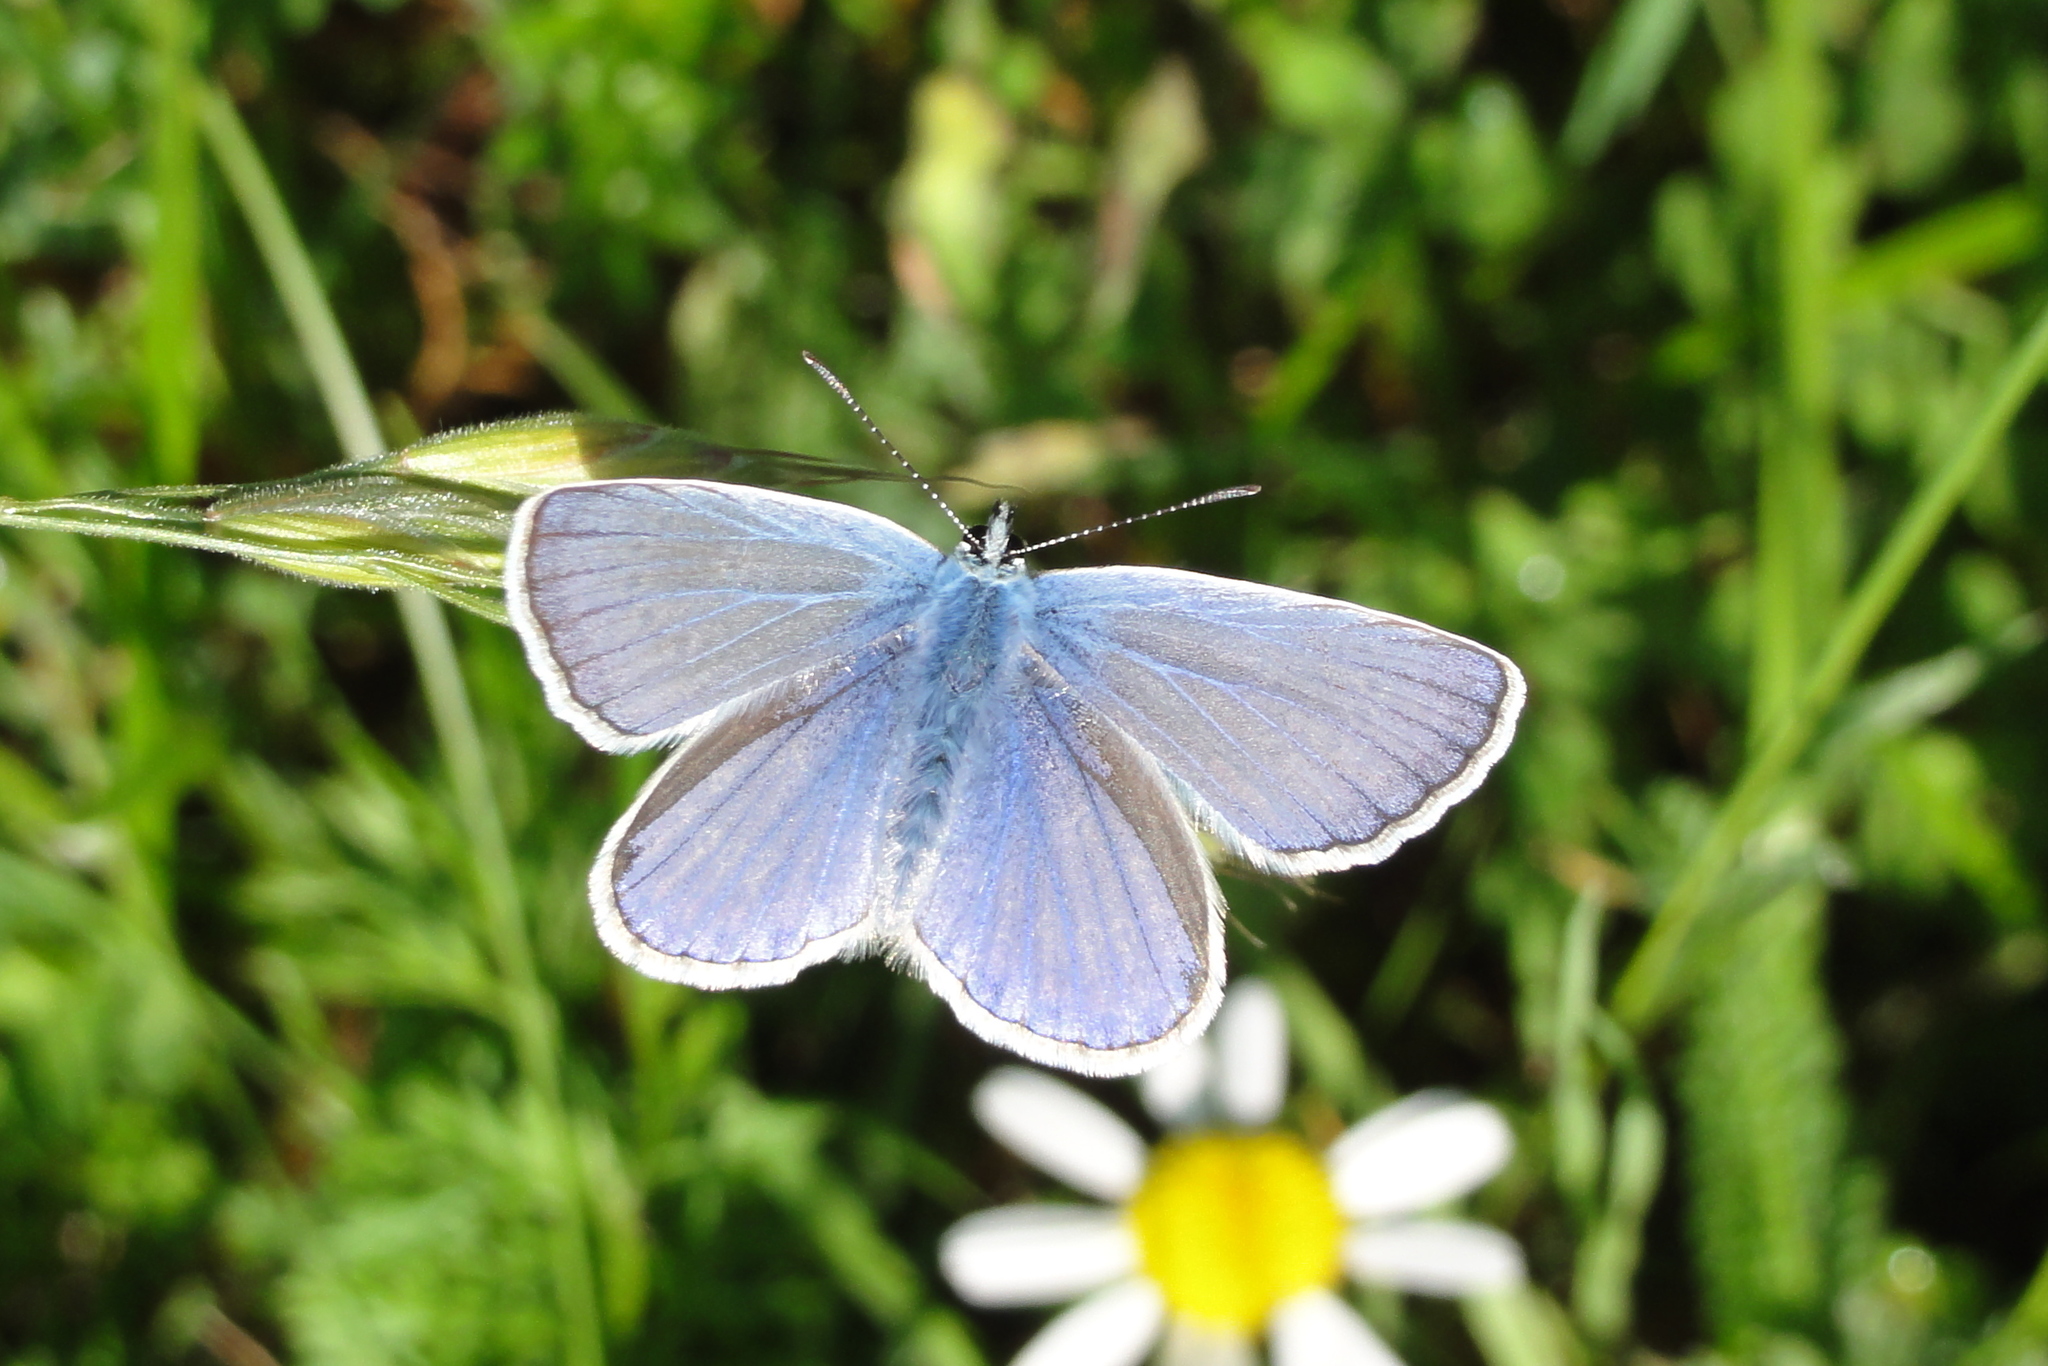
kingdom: Animalia
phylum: Arthropoda
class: Insecta
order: Lepidoptera
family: Lycaenidae
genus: Polyommatus
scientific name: Polyommatus icarus
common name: Common blue
